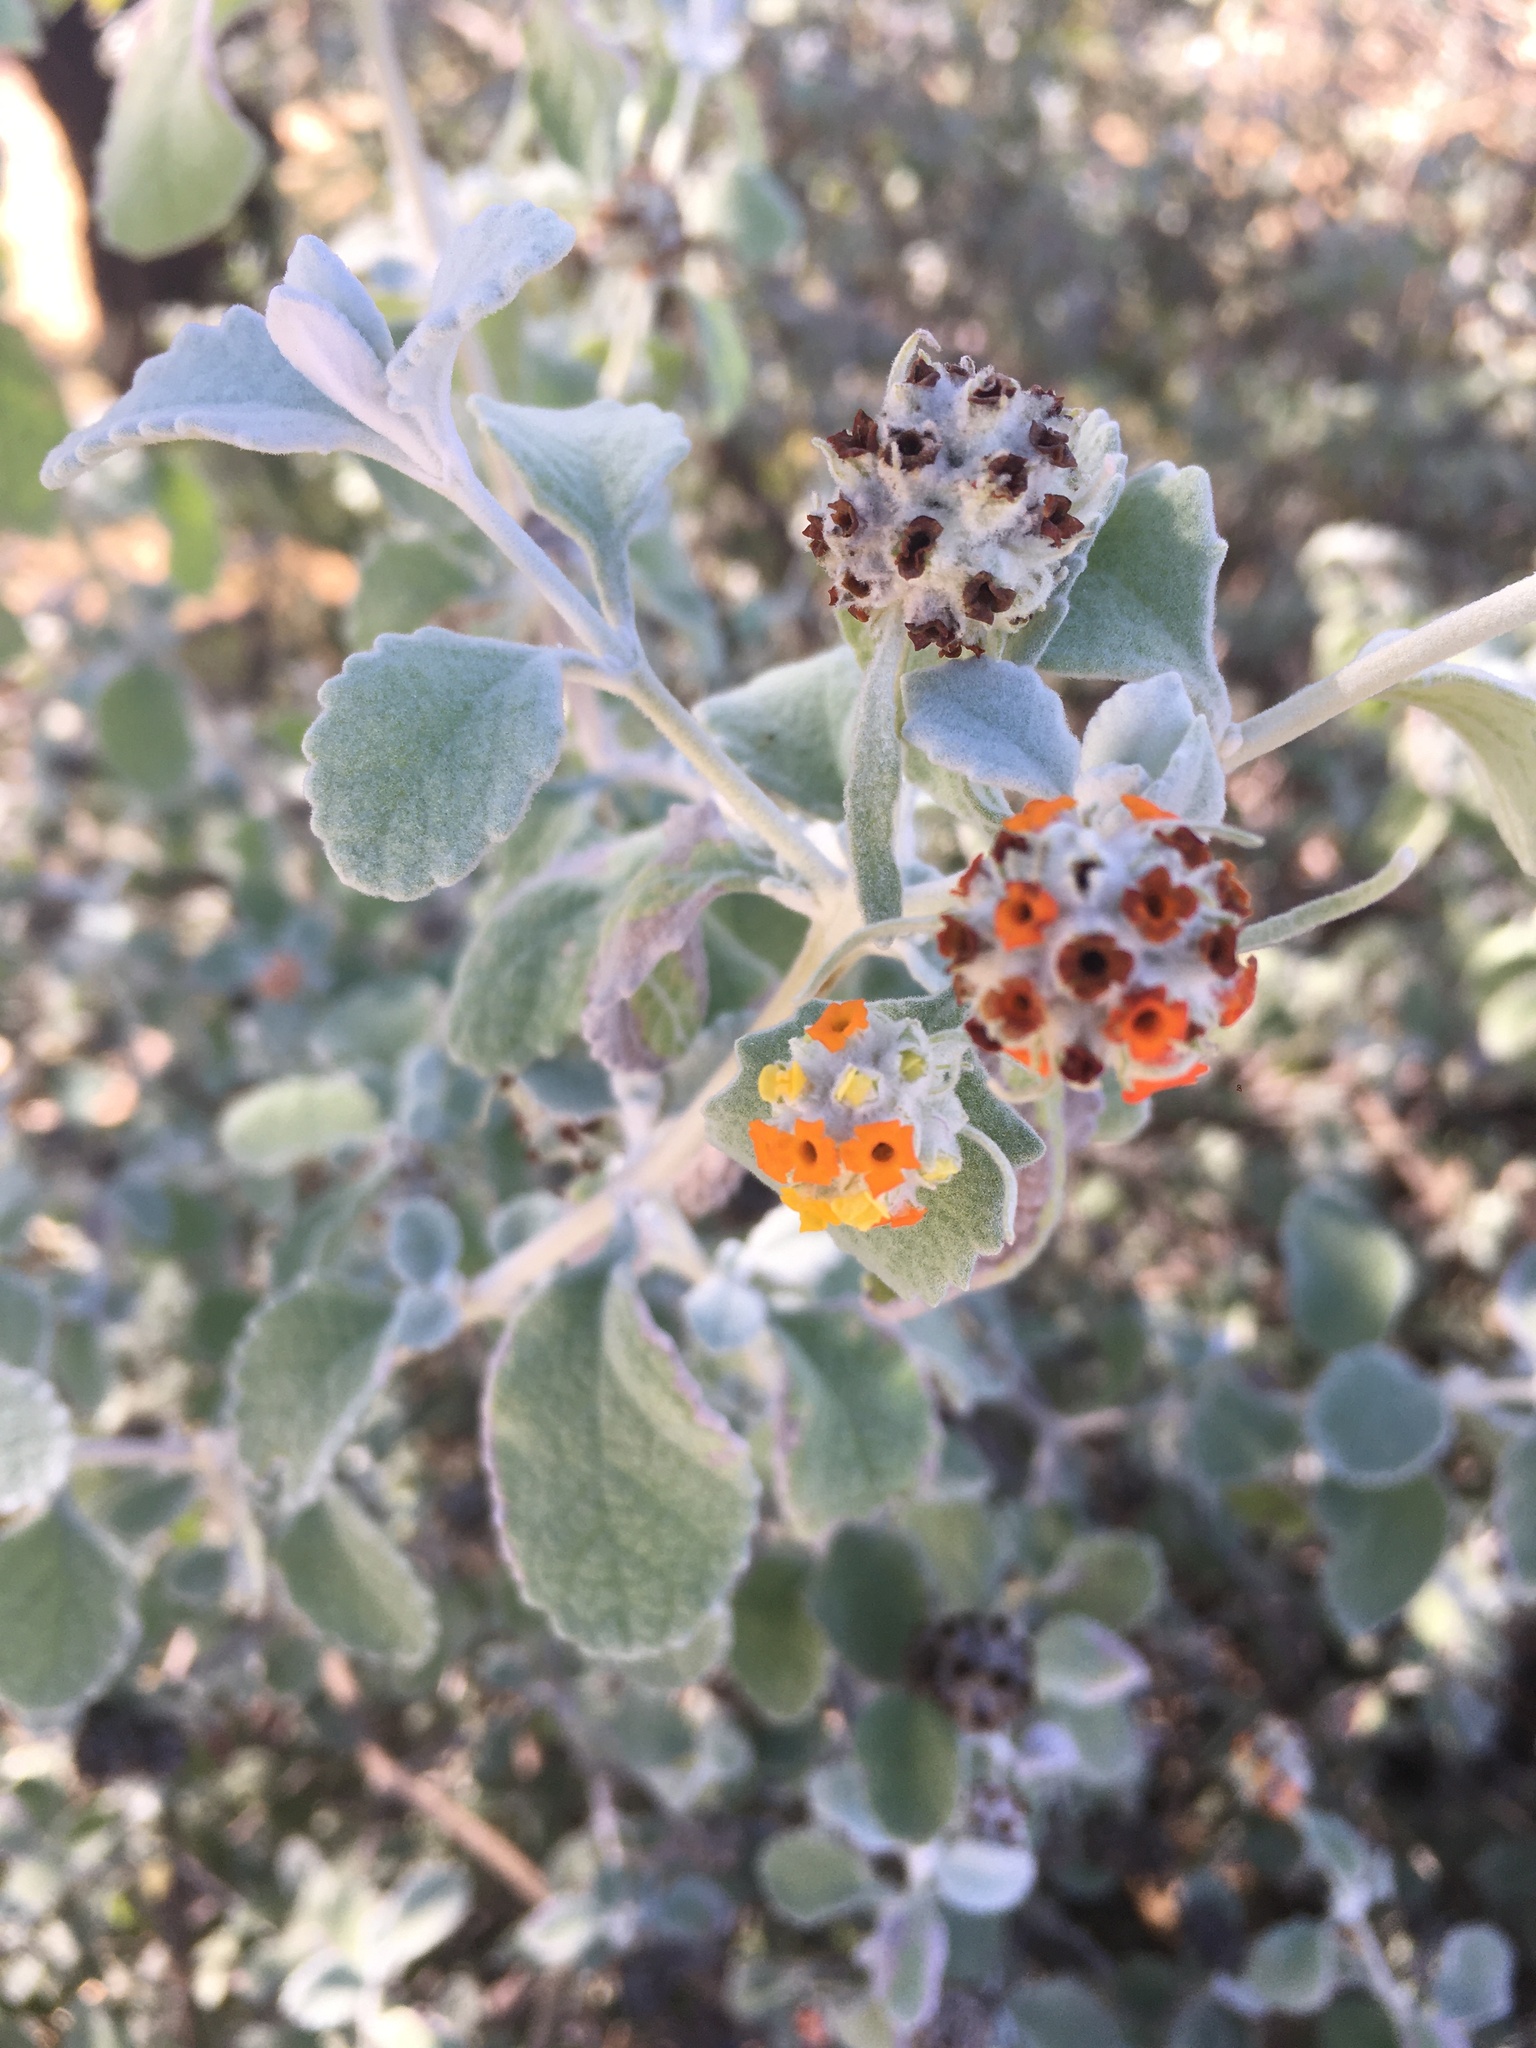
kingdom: Plantae
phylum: Tracheophyta
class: Magnoliopsida
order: Lamiales
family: Scrophulariaceae
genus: Buddleja
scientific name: Buddleja marrubiifolia
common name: Woolly butterfly-bush
